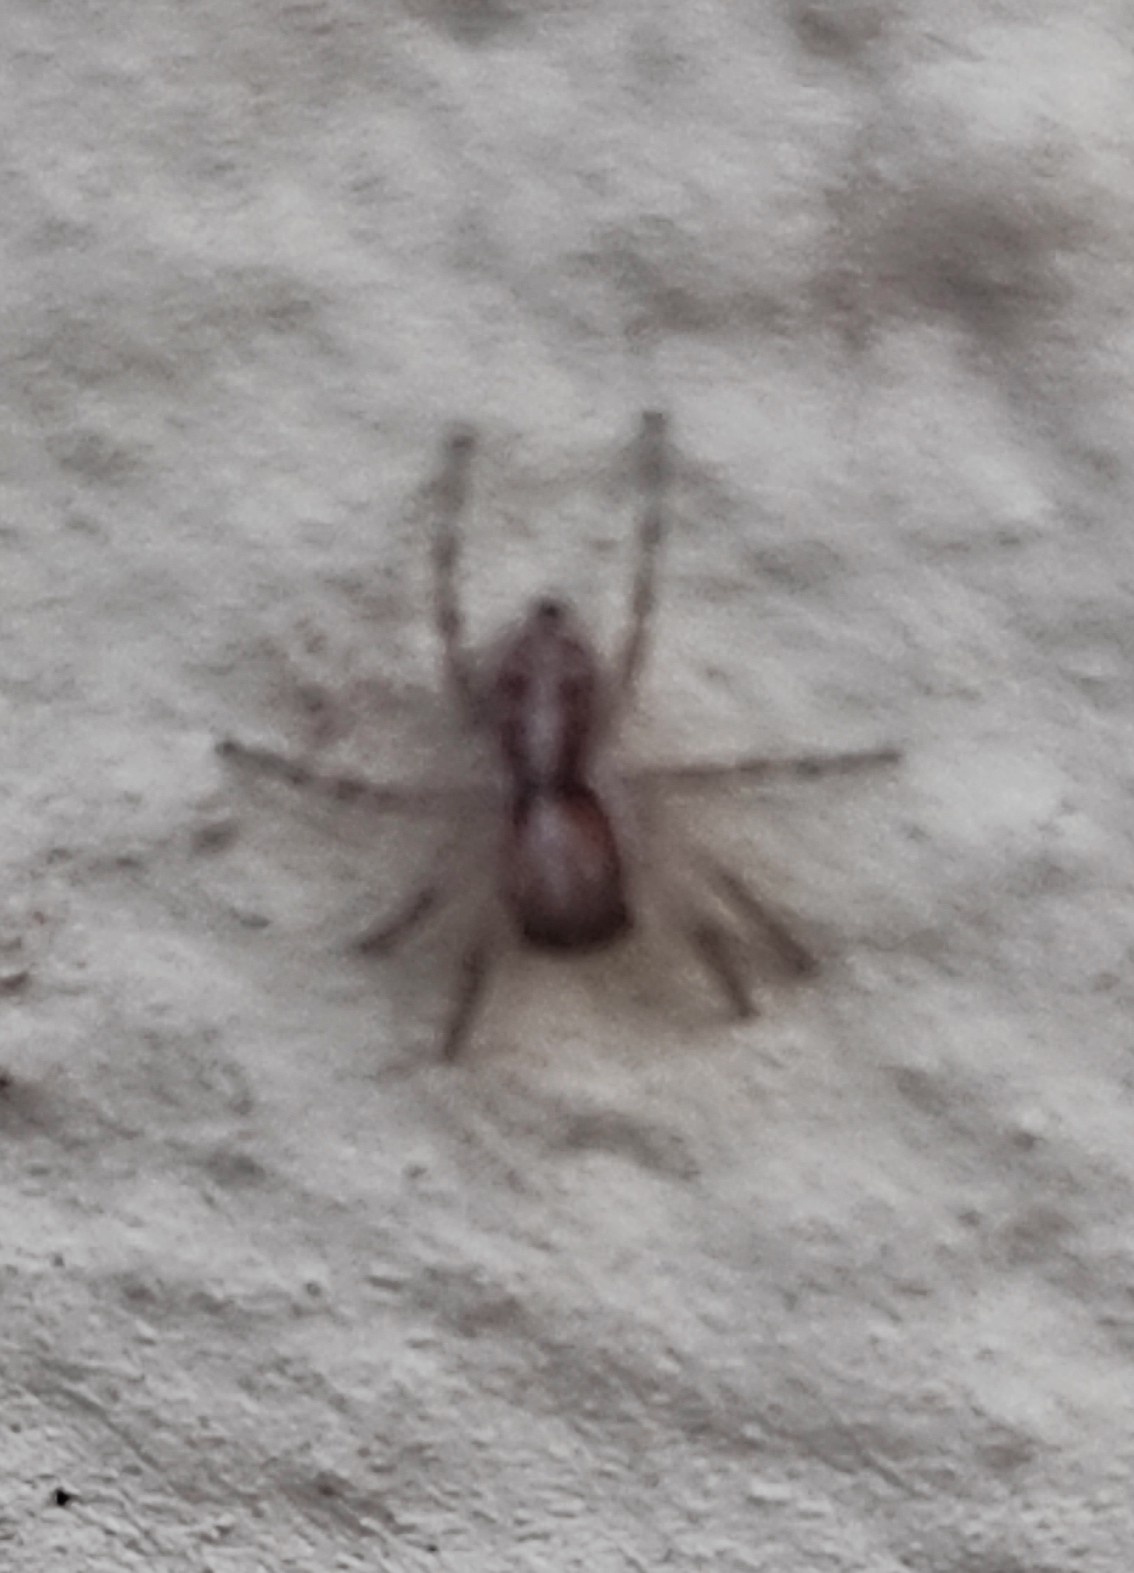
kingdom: Animalia
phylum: Arthropoda
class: Arachnida
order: Araneae
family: Salticidae
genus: Menemerus
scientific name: Menemerus semilimbatus
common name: Jumping spider
